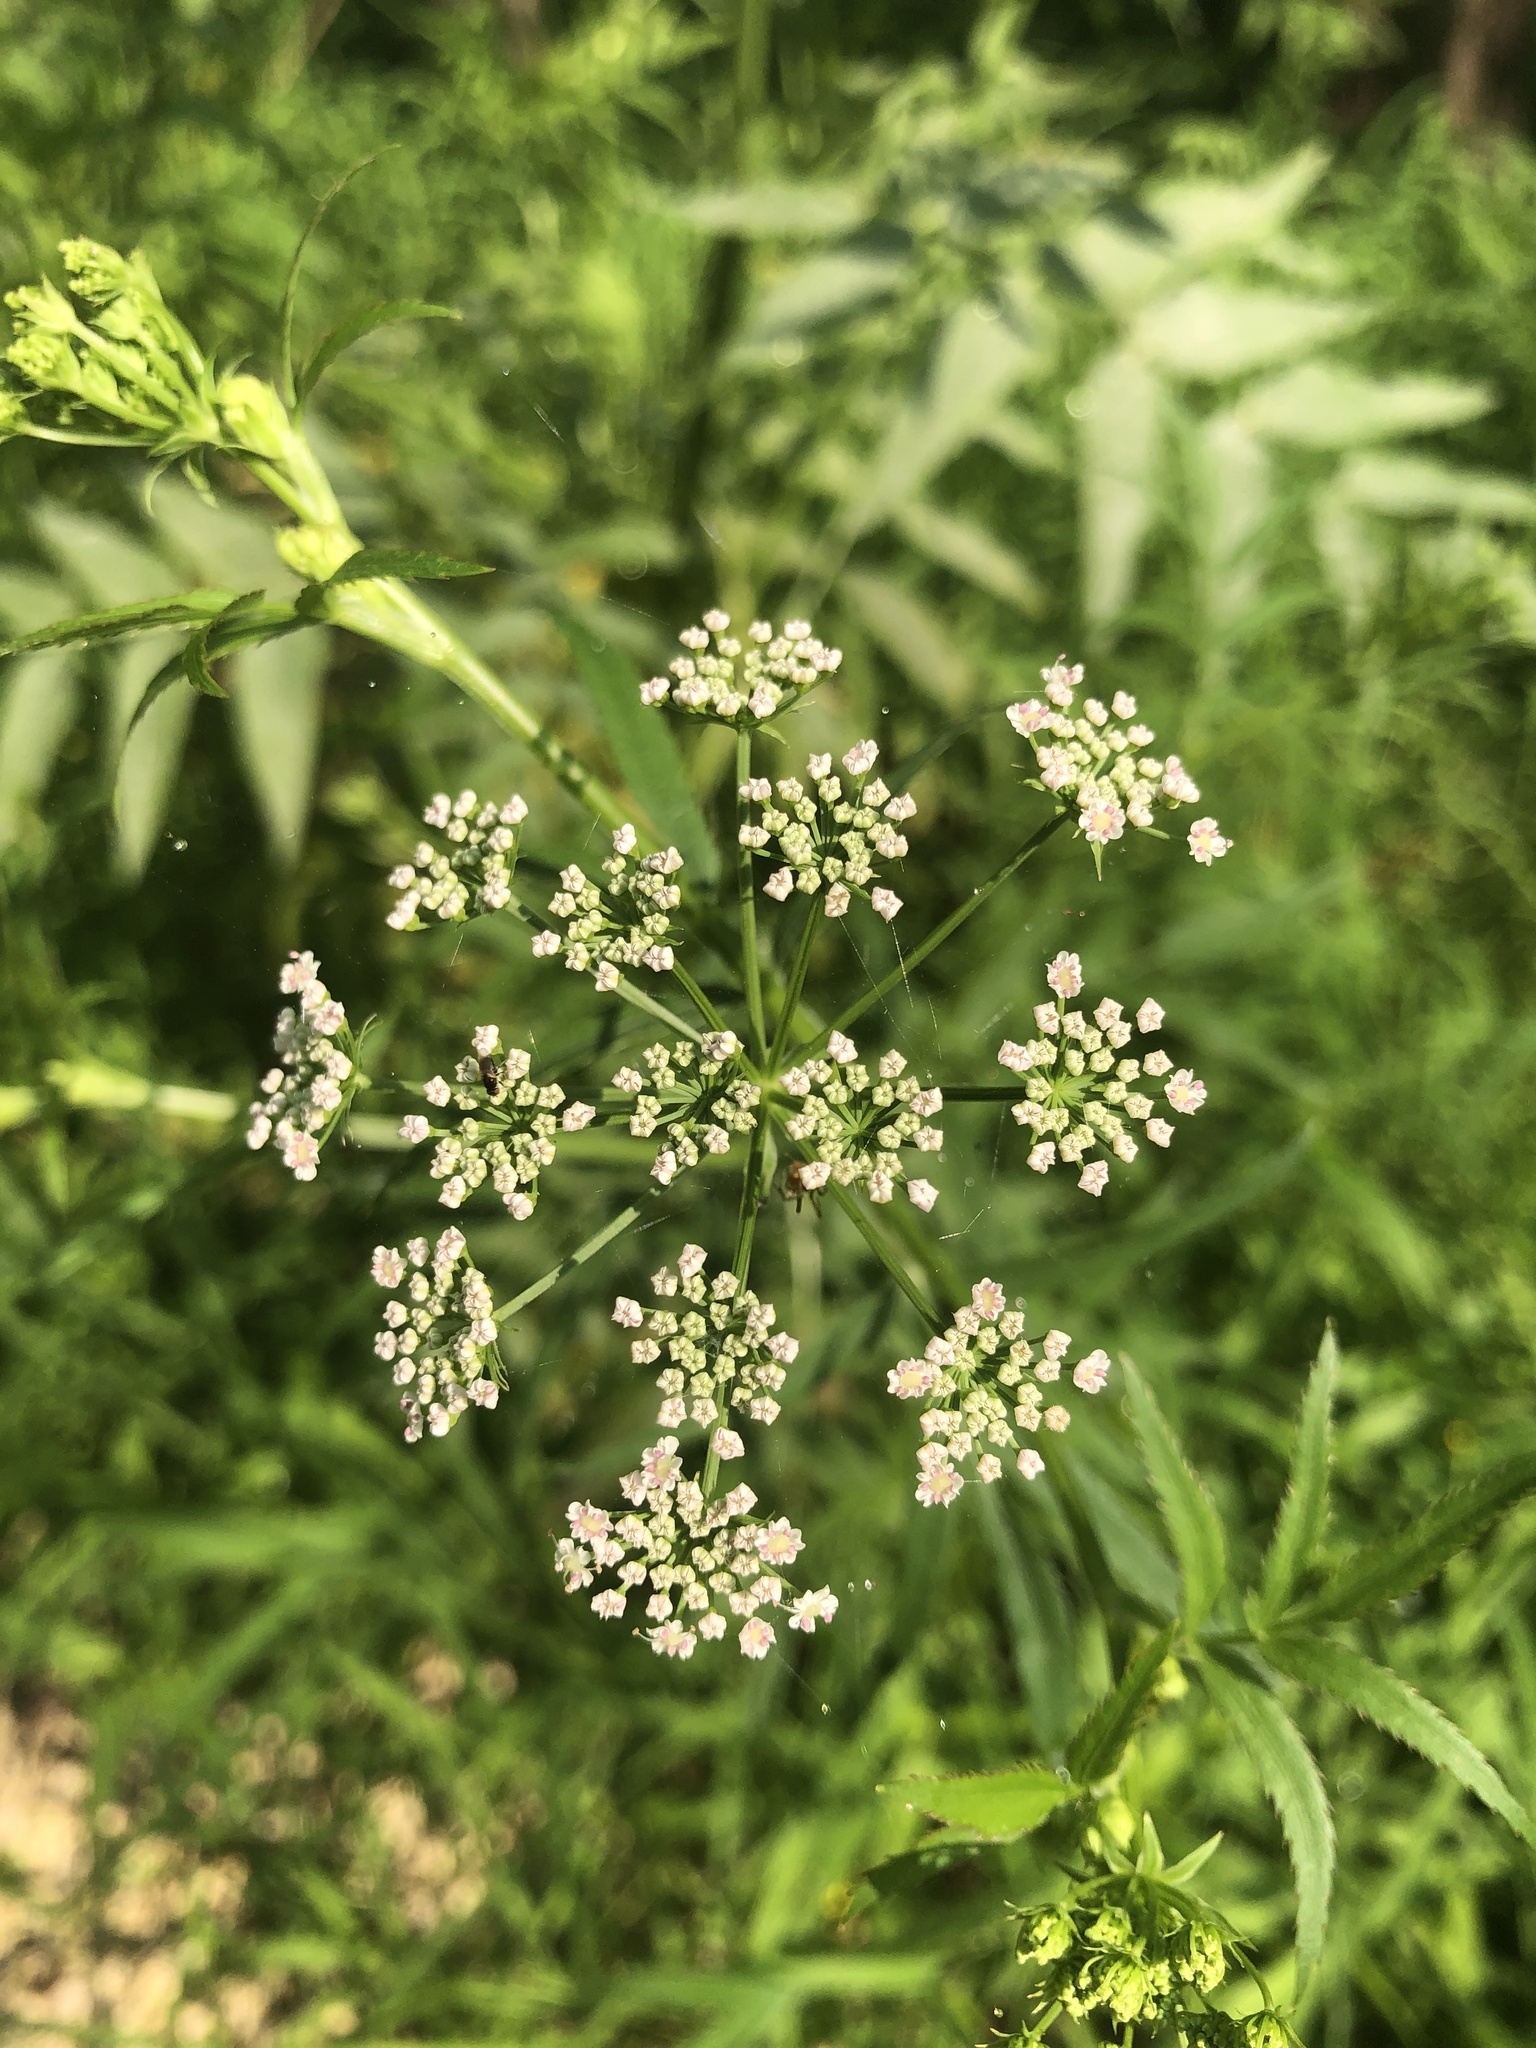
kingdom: Plantae
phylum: Tracheophyta
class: Magnoliopsida
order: Apiales
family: Apiaceae
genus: Sium
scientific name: Sium suave
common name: Hemlock water-parsnip
